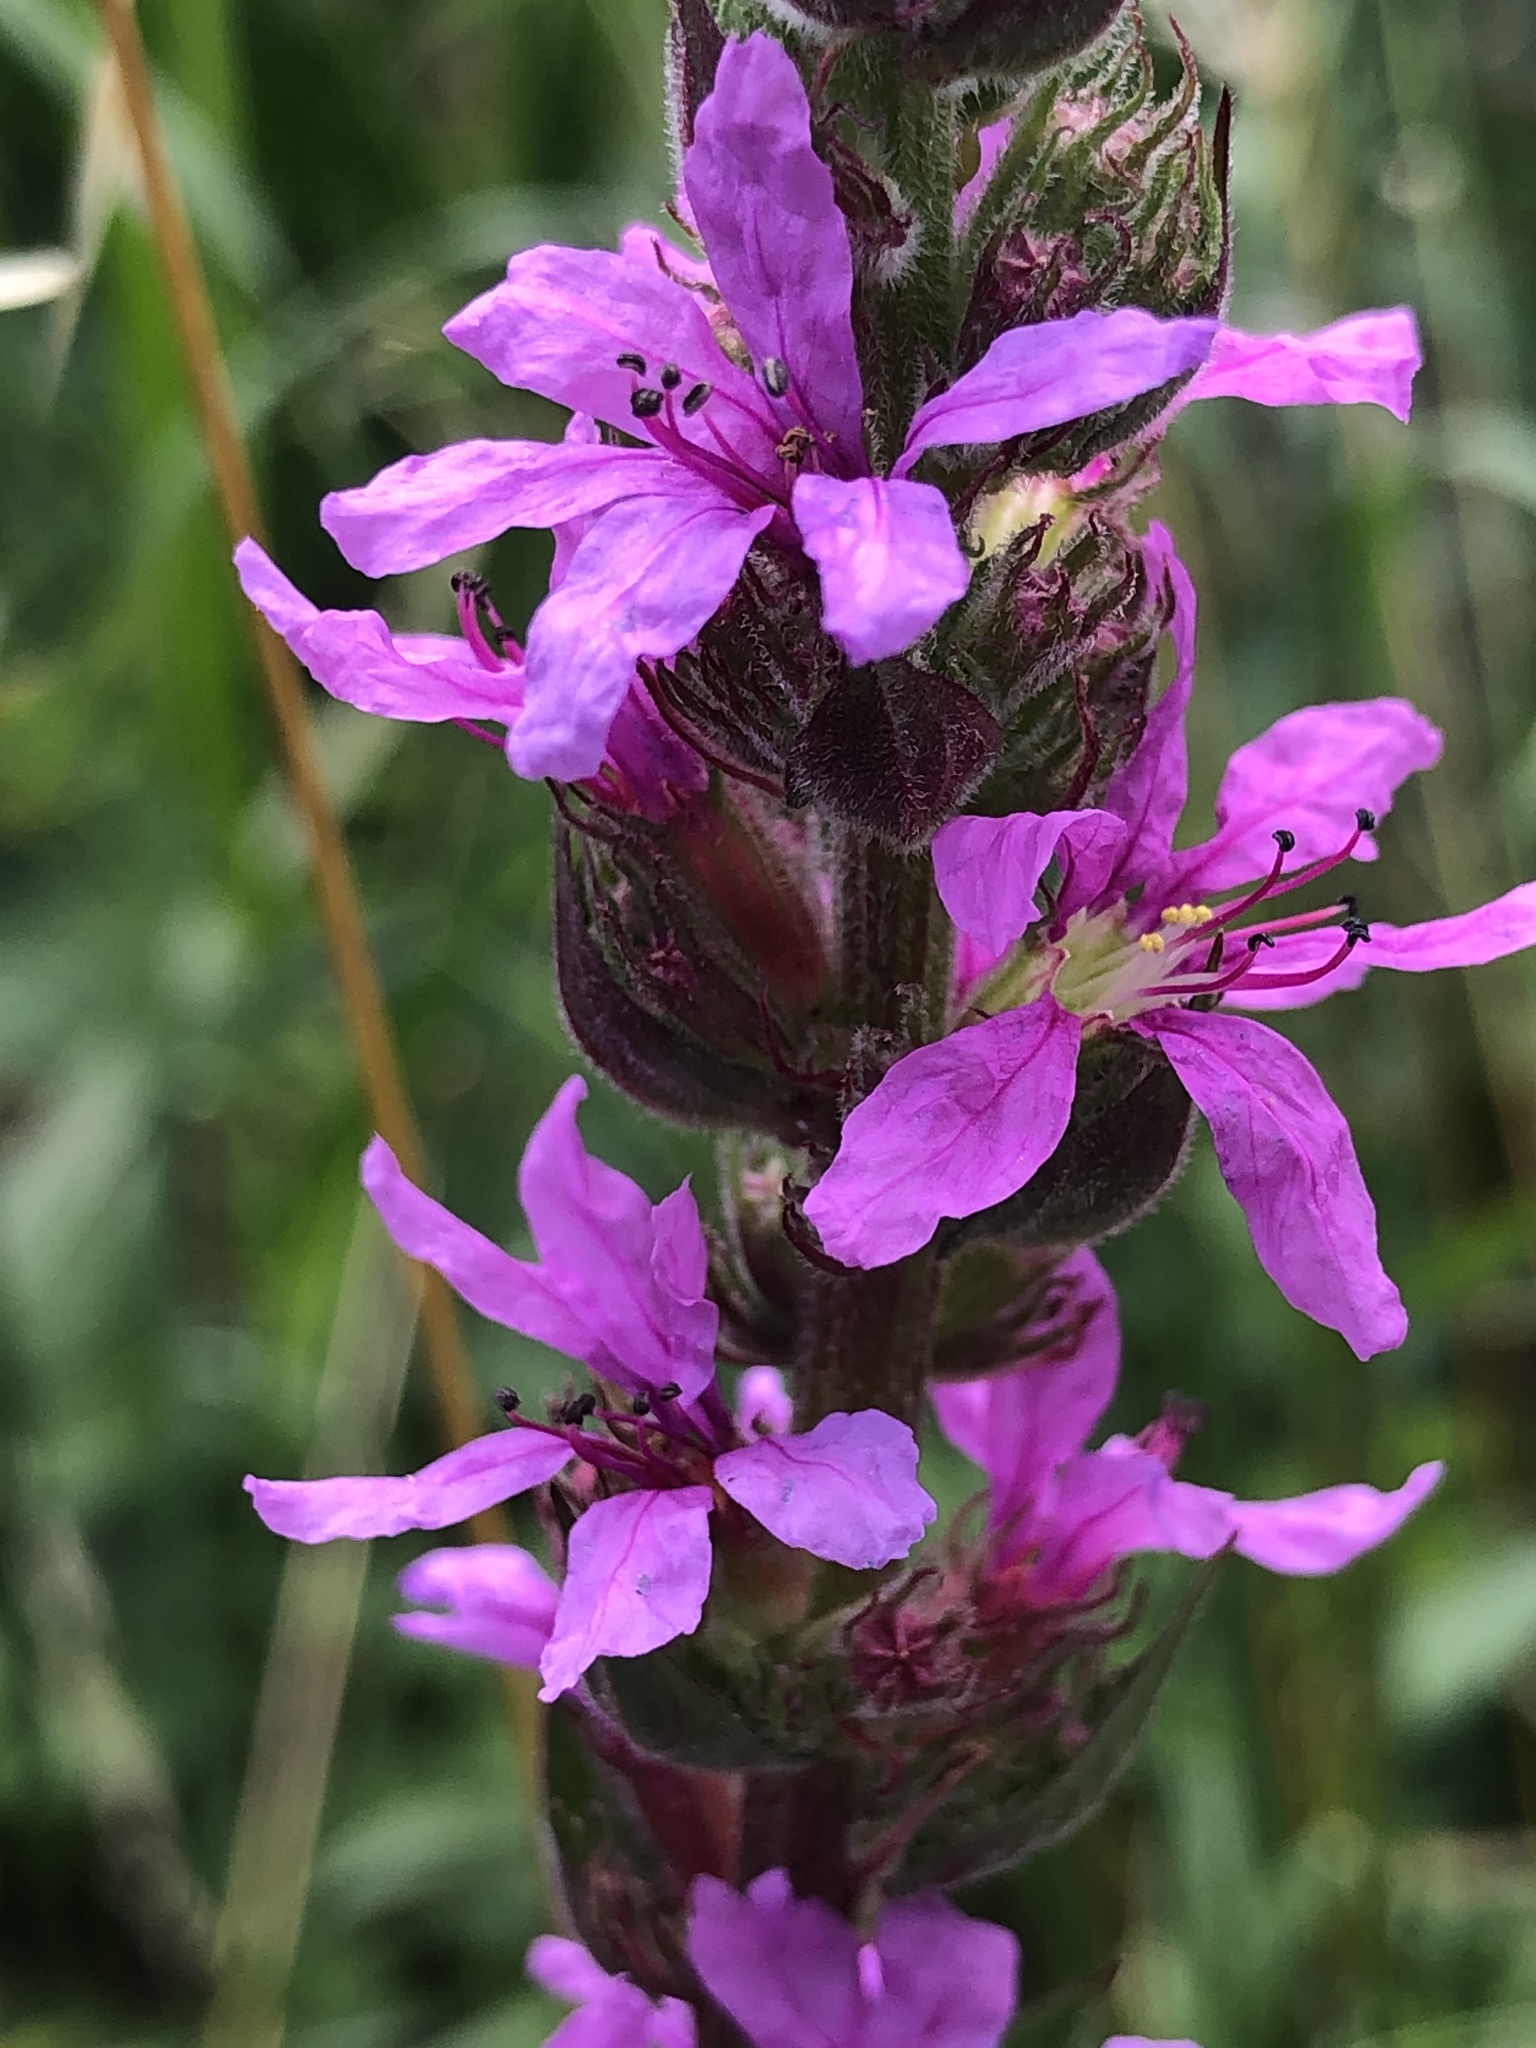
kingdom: Plantae
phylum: Tracheophyta
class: Magnoliopsida
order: Myrtales
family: Lythraceae
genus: Lythrum
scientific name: Lythrum salicaria
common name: Purple loosestrife
